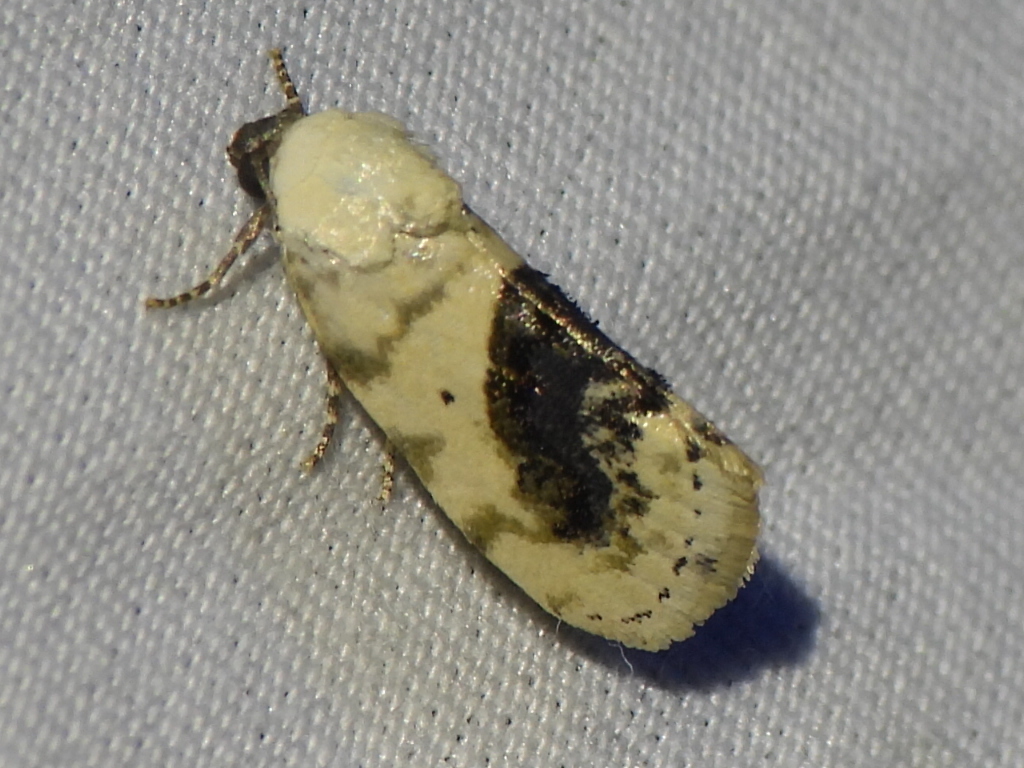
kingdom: Animalia
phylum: Arthropoda
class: Insecta
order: Lepidoptera
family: Noctuidae
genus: Acontia
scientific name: Acontia erastrioides
